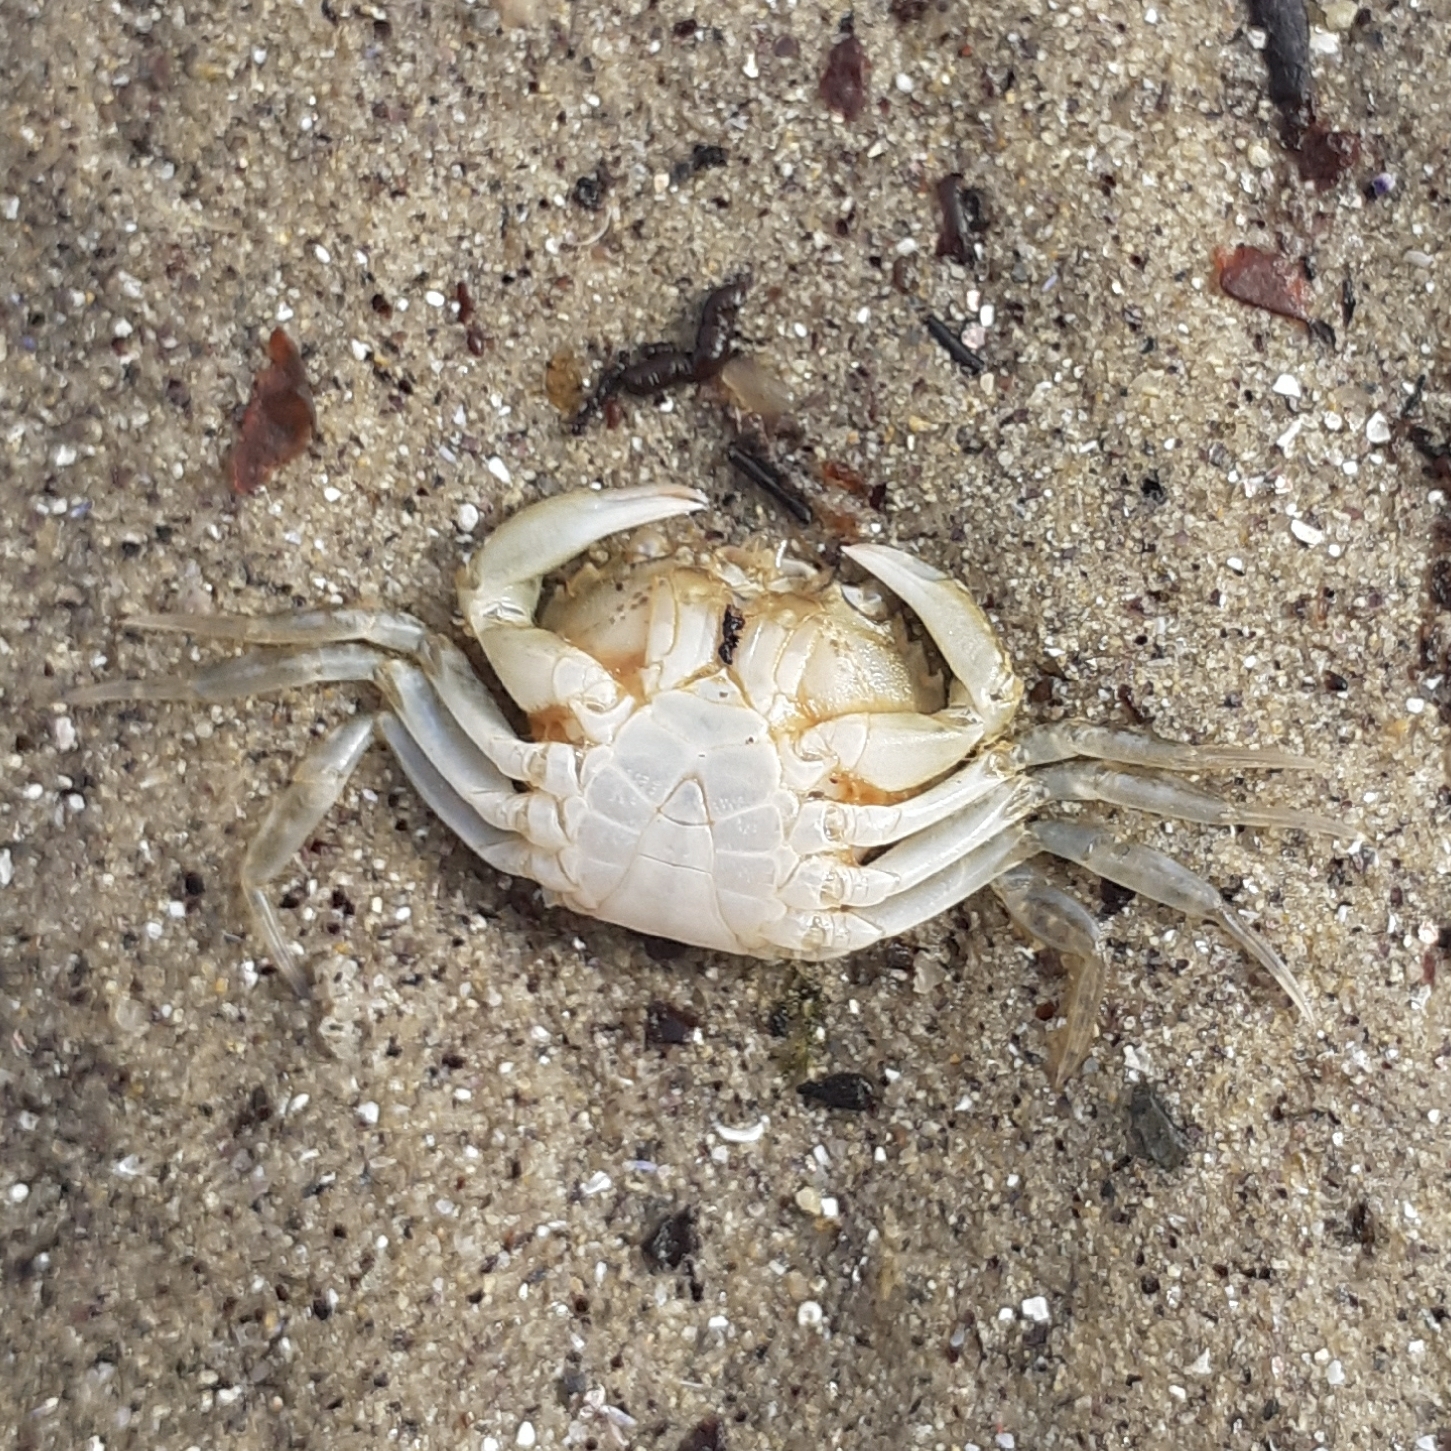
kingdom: Animalia
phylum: Arthropoda
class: Malacostraca
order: Decapoda
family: Carcinidae
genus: Carcinus
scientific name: Carcinus maenas
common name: European green crab
